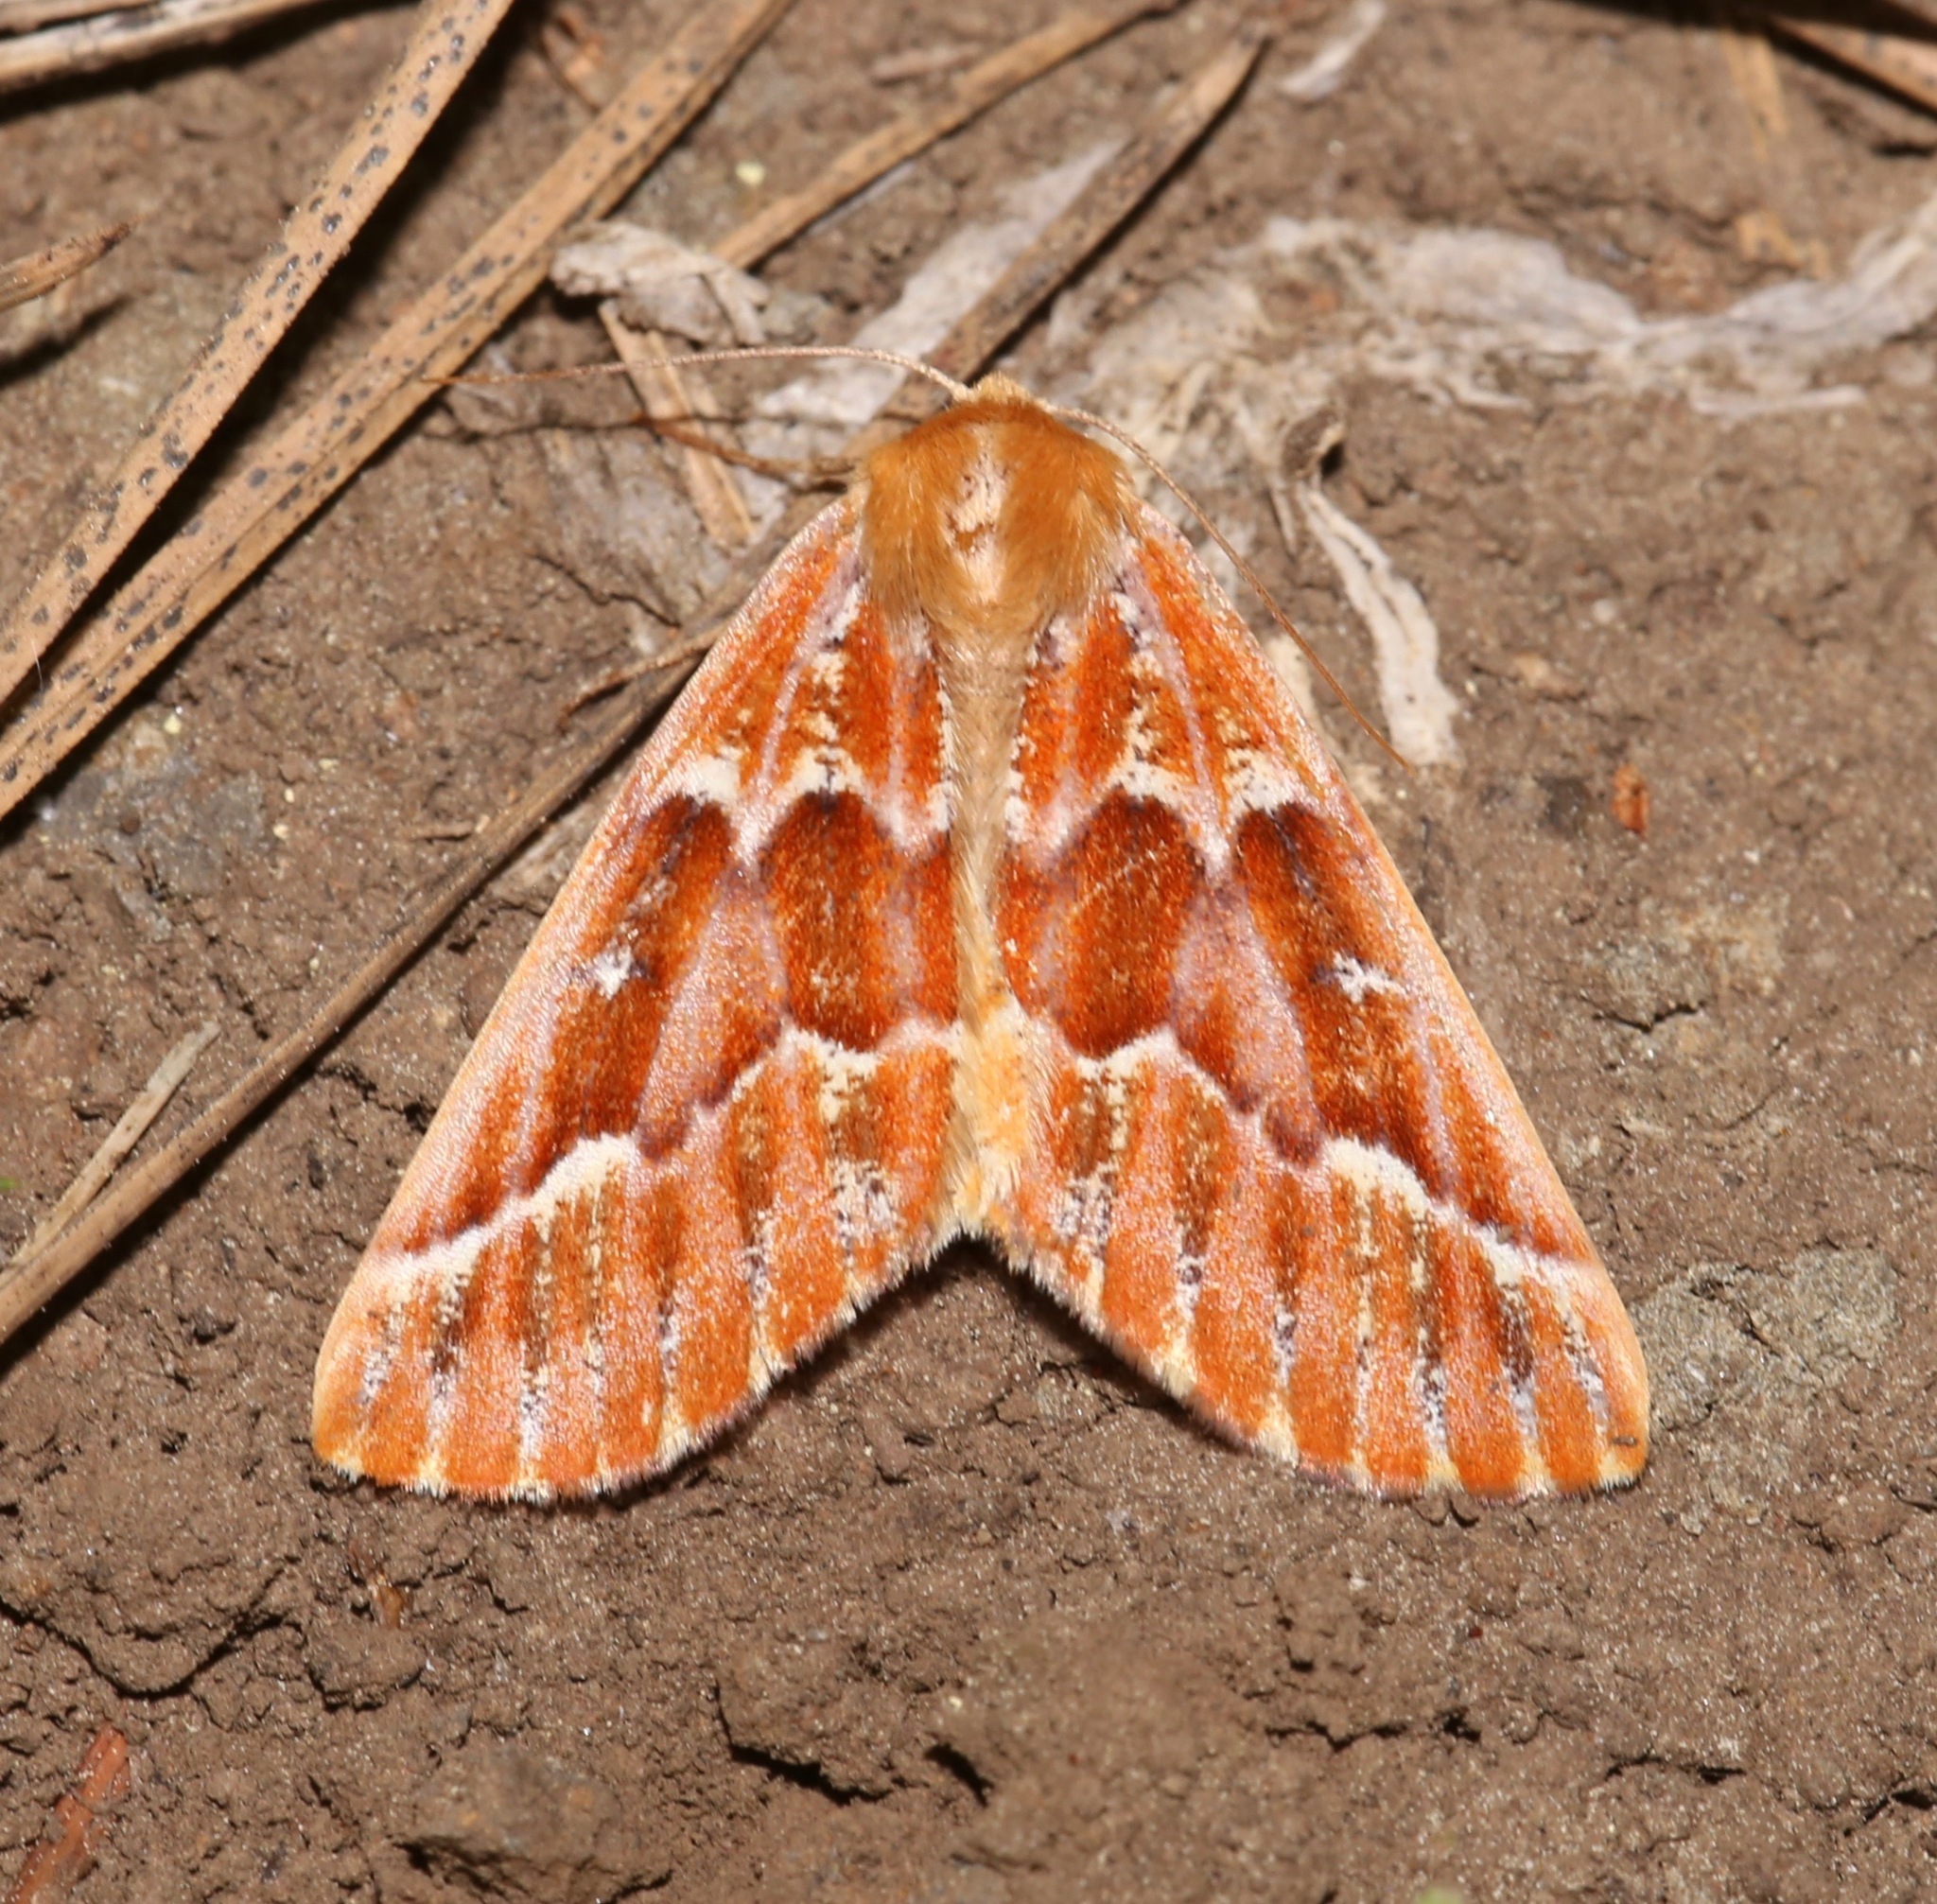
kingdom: Animalia
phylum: Arthropoda
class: Insecta
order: Lepidoptera
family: Geometridae
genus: Caripeta
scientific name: Caripeta aequaliaria
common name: Red girdle moth
